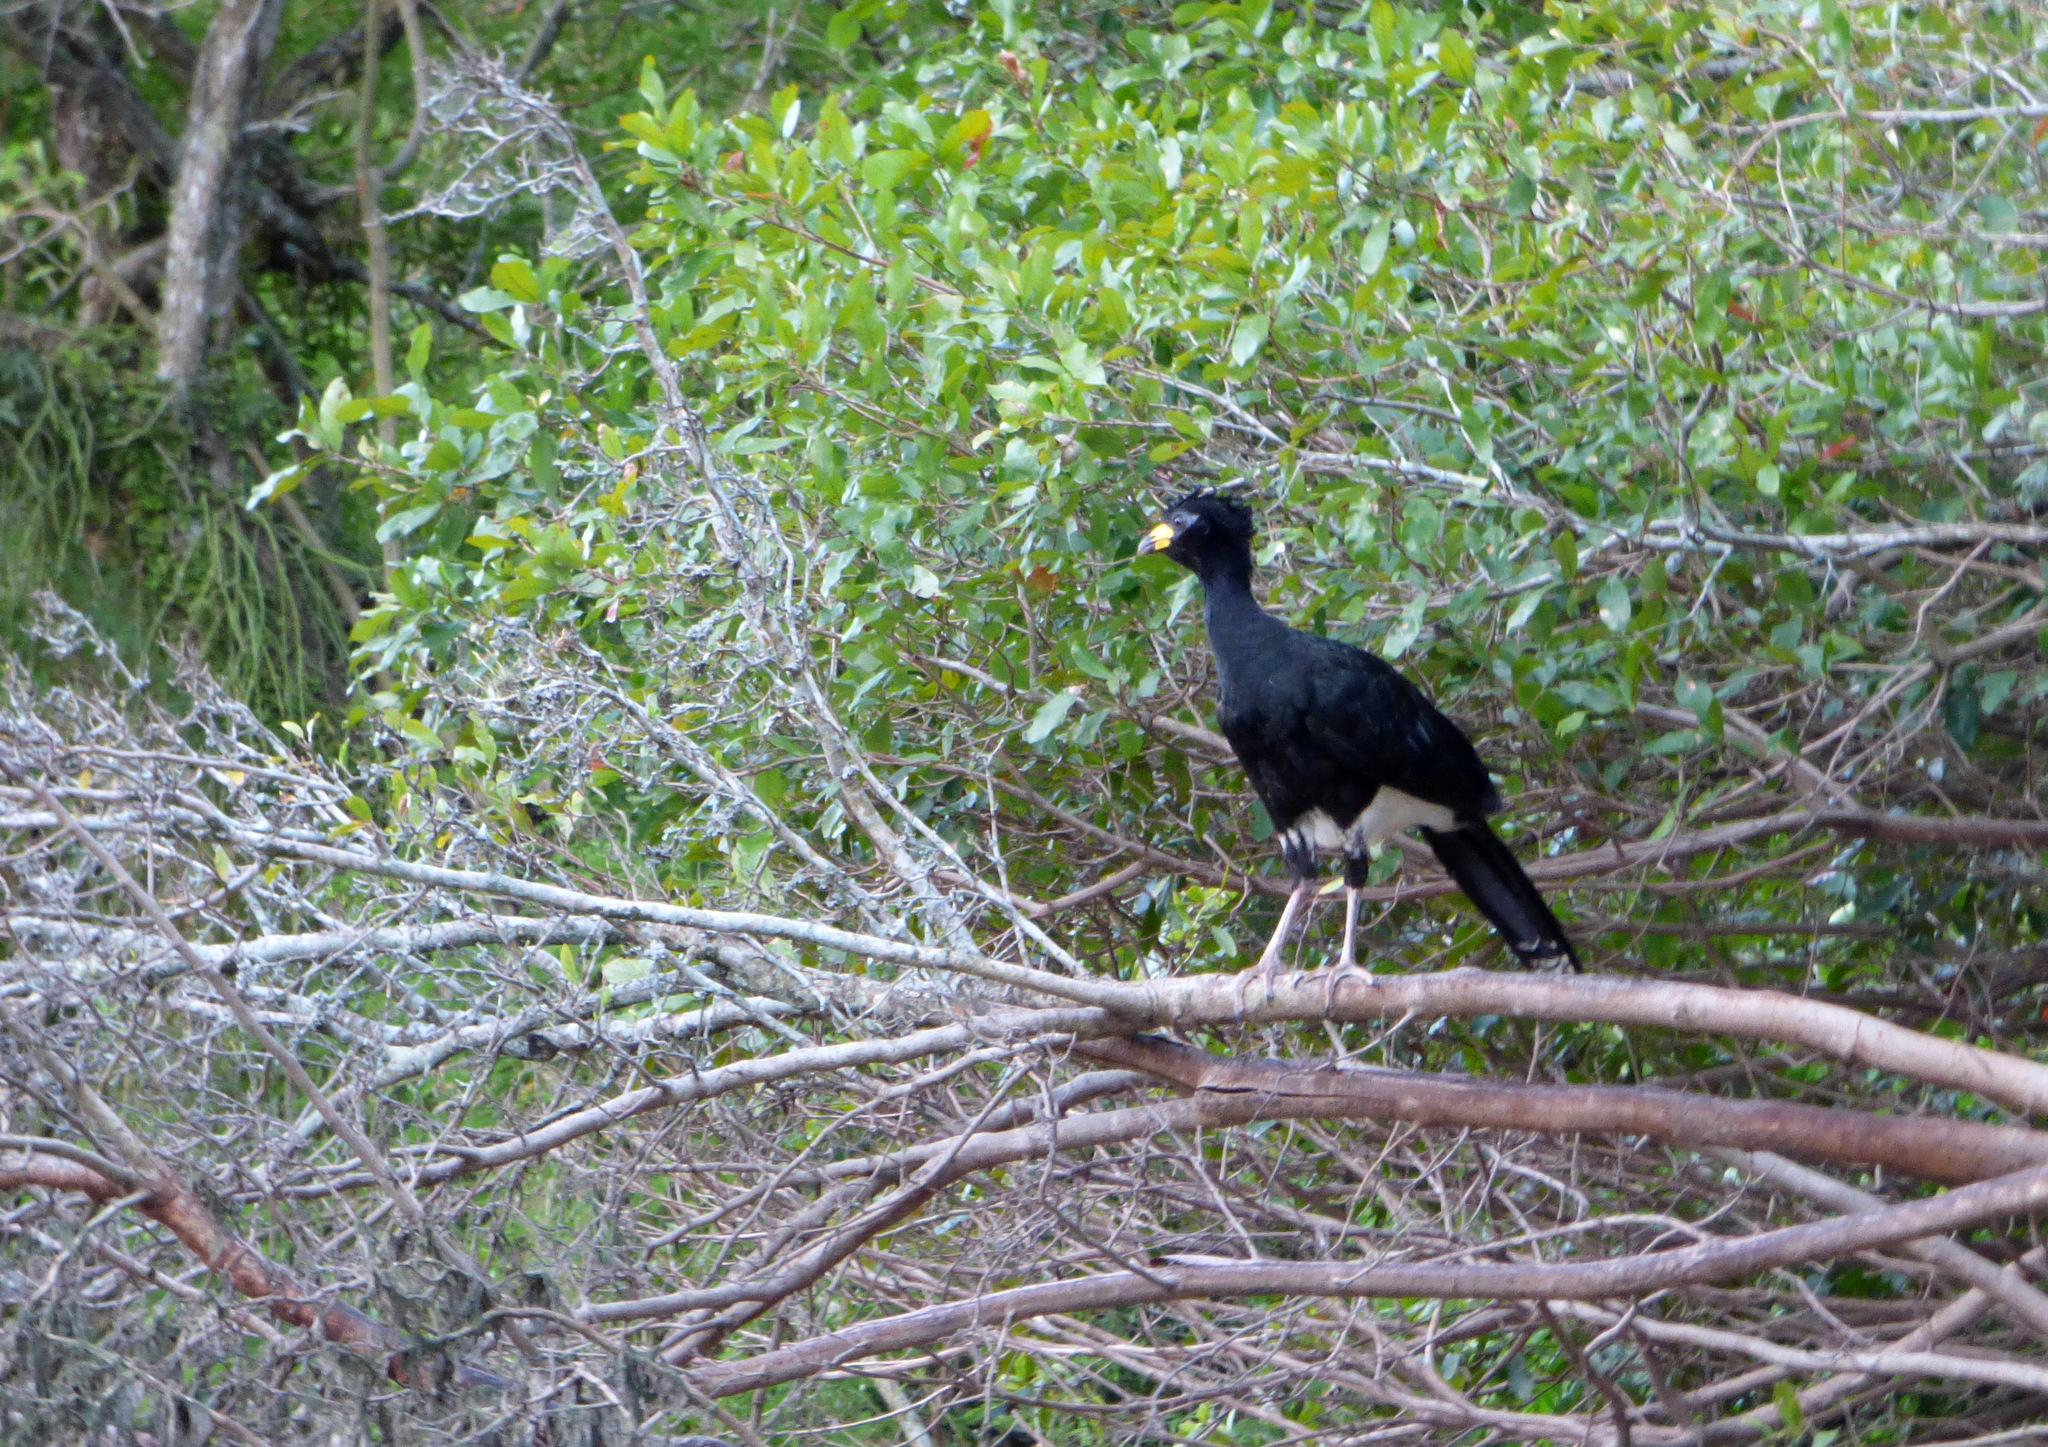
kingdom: Animalia
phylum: Chordata
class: Aves
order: Galliformes
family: Cracidae
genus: Crax
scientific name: Crax fasciolata
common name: Bare-faced curassow
